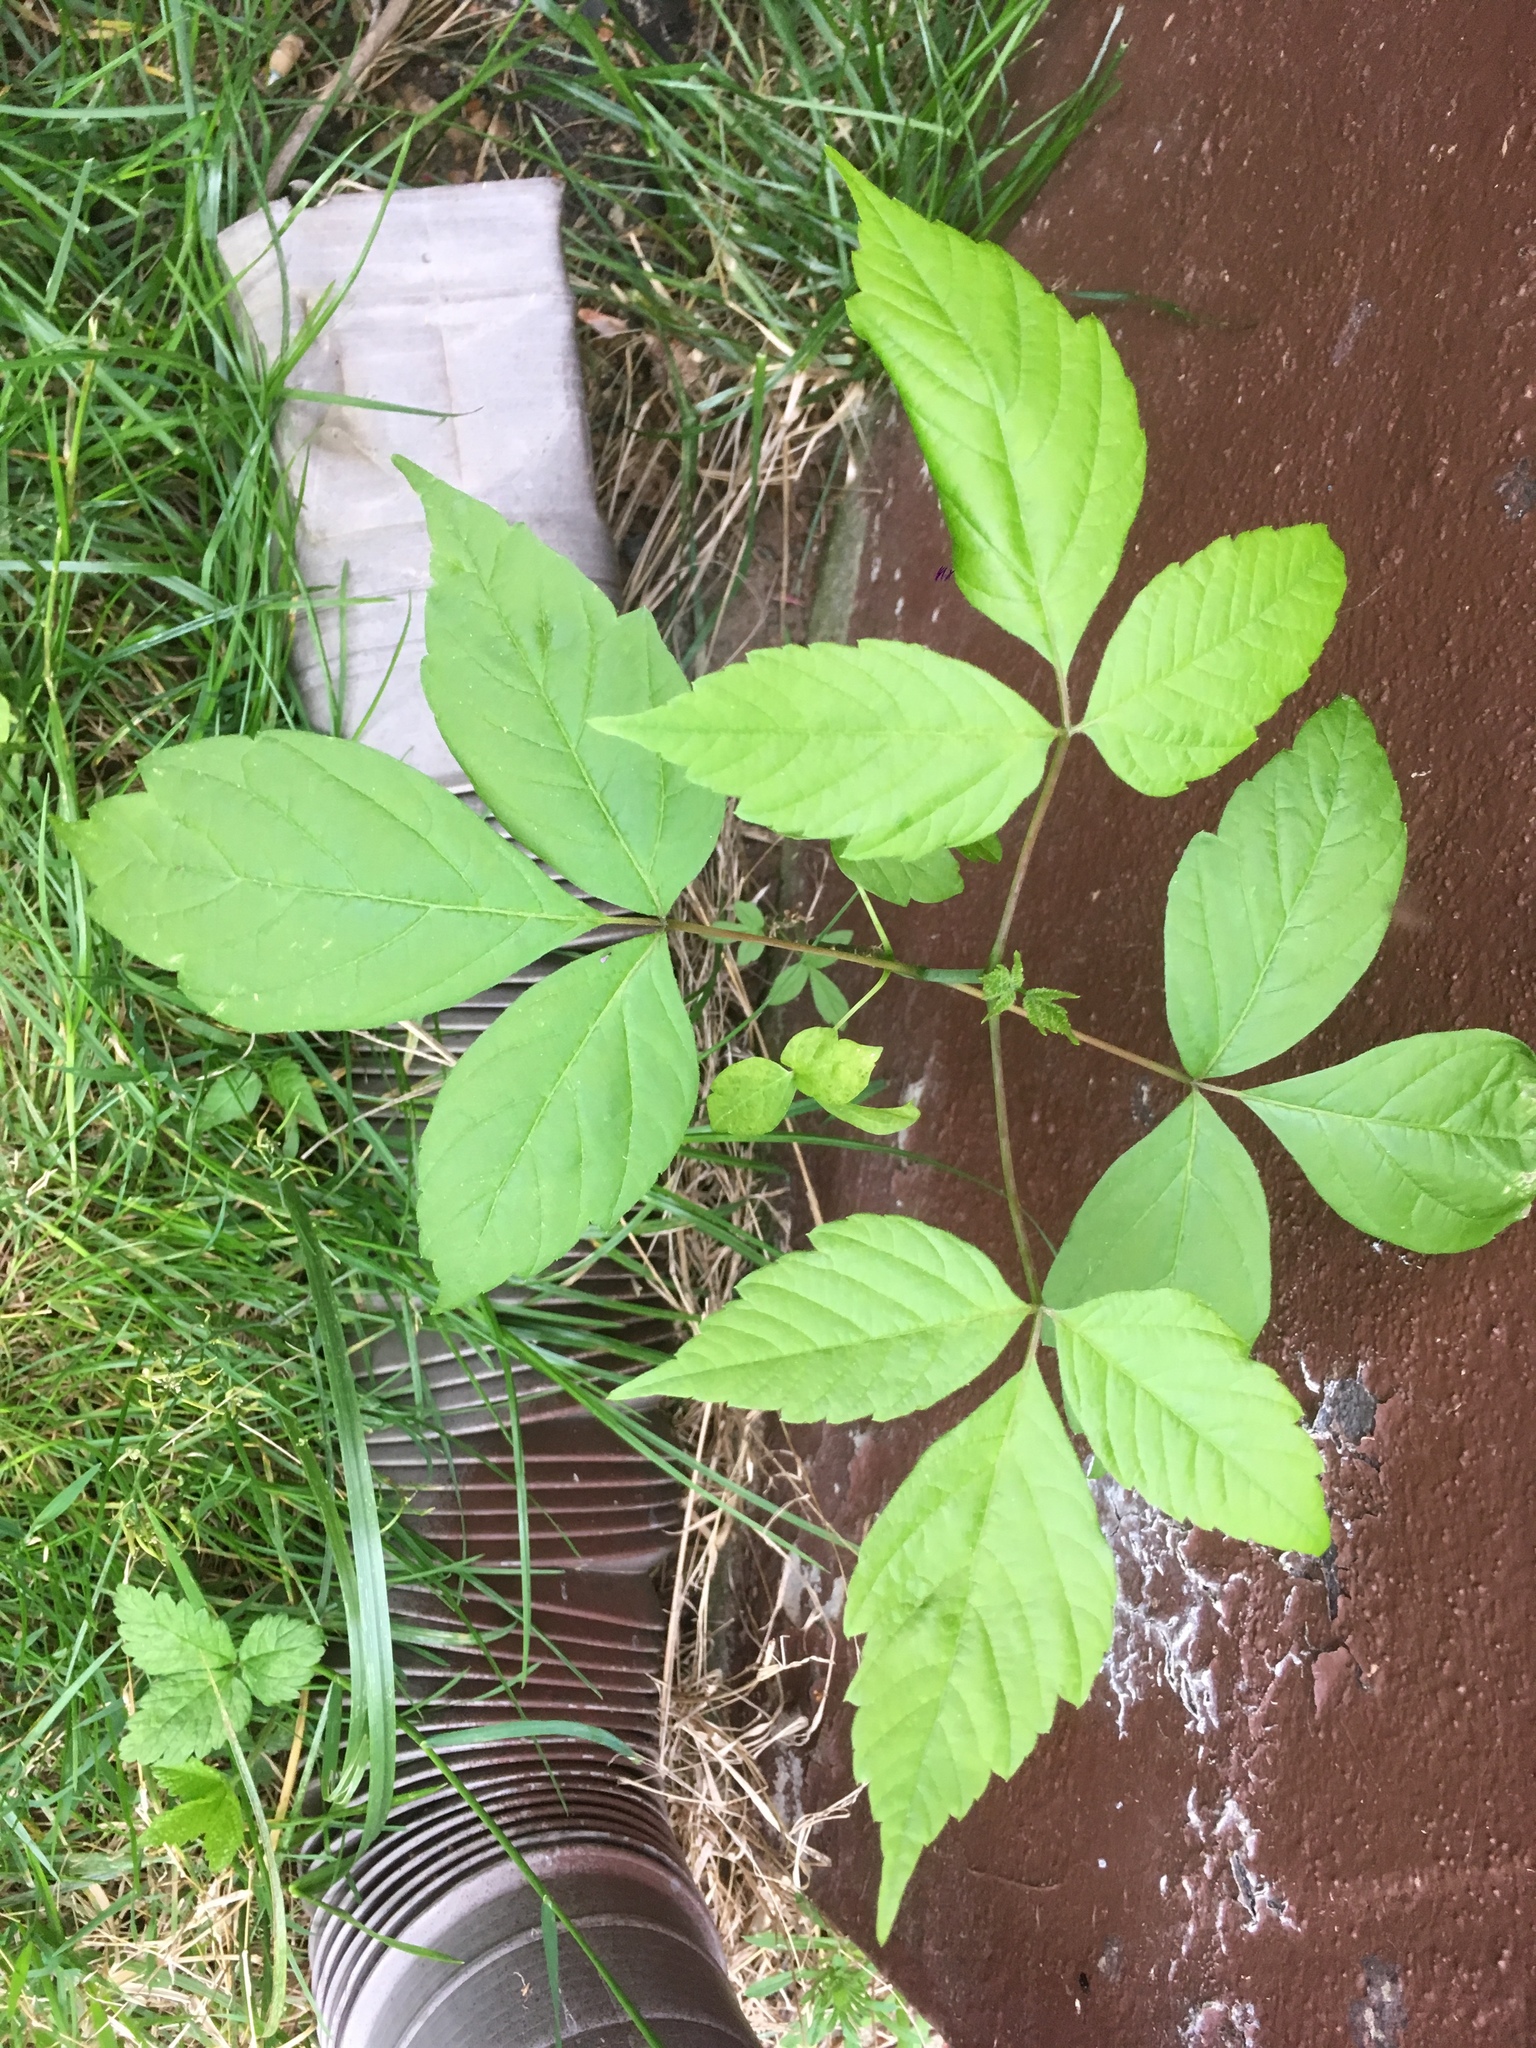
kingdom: Plantae
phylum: Tracheophyta
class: Magnoliopsida
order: Sapindales
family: Sapindaceae
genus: Acer
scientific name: Acer negundo
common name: Ashleaf maple
